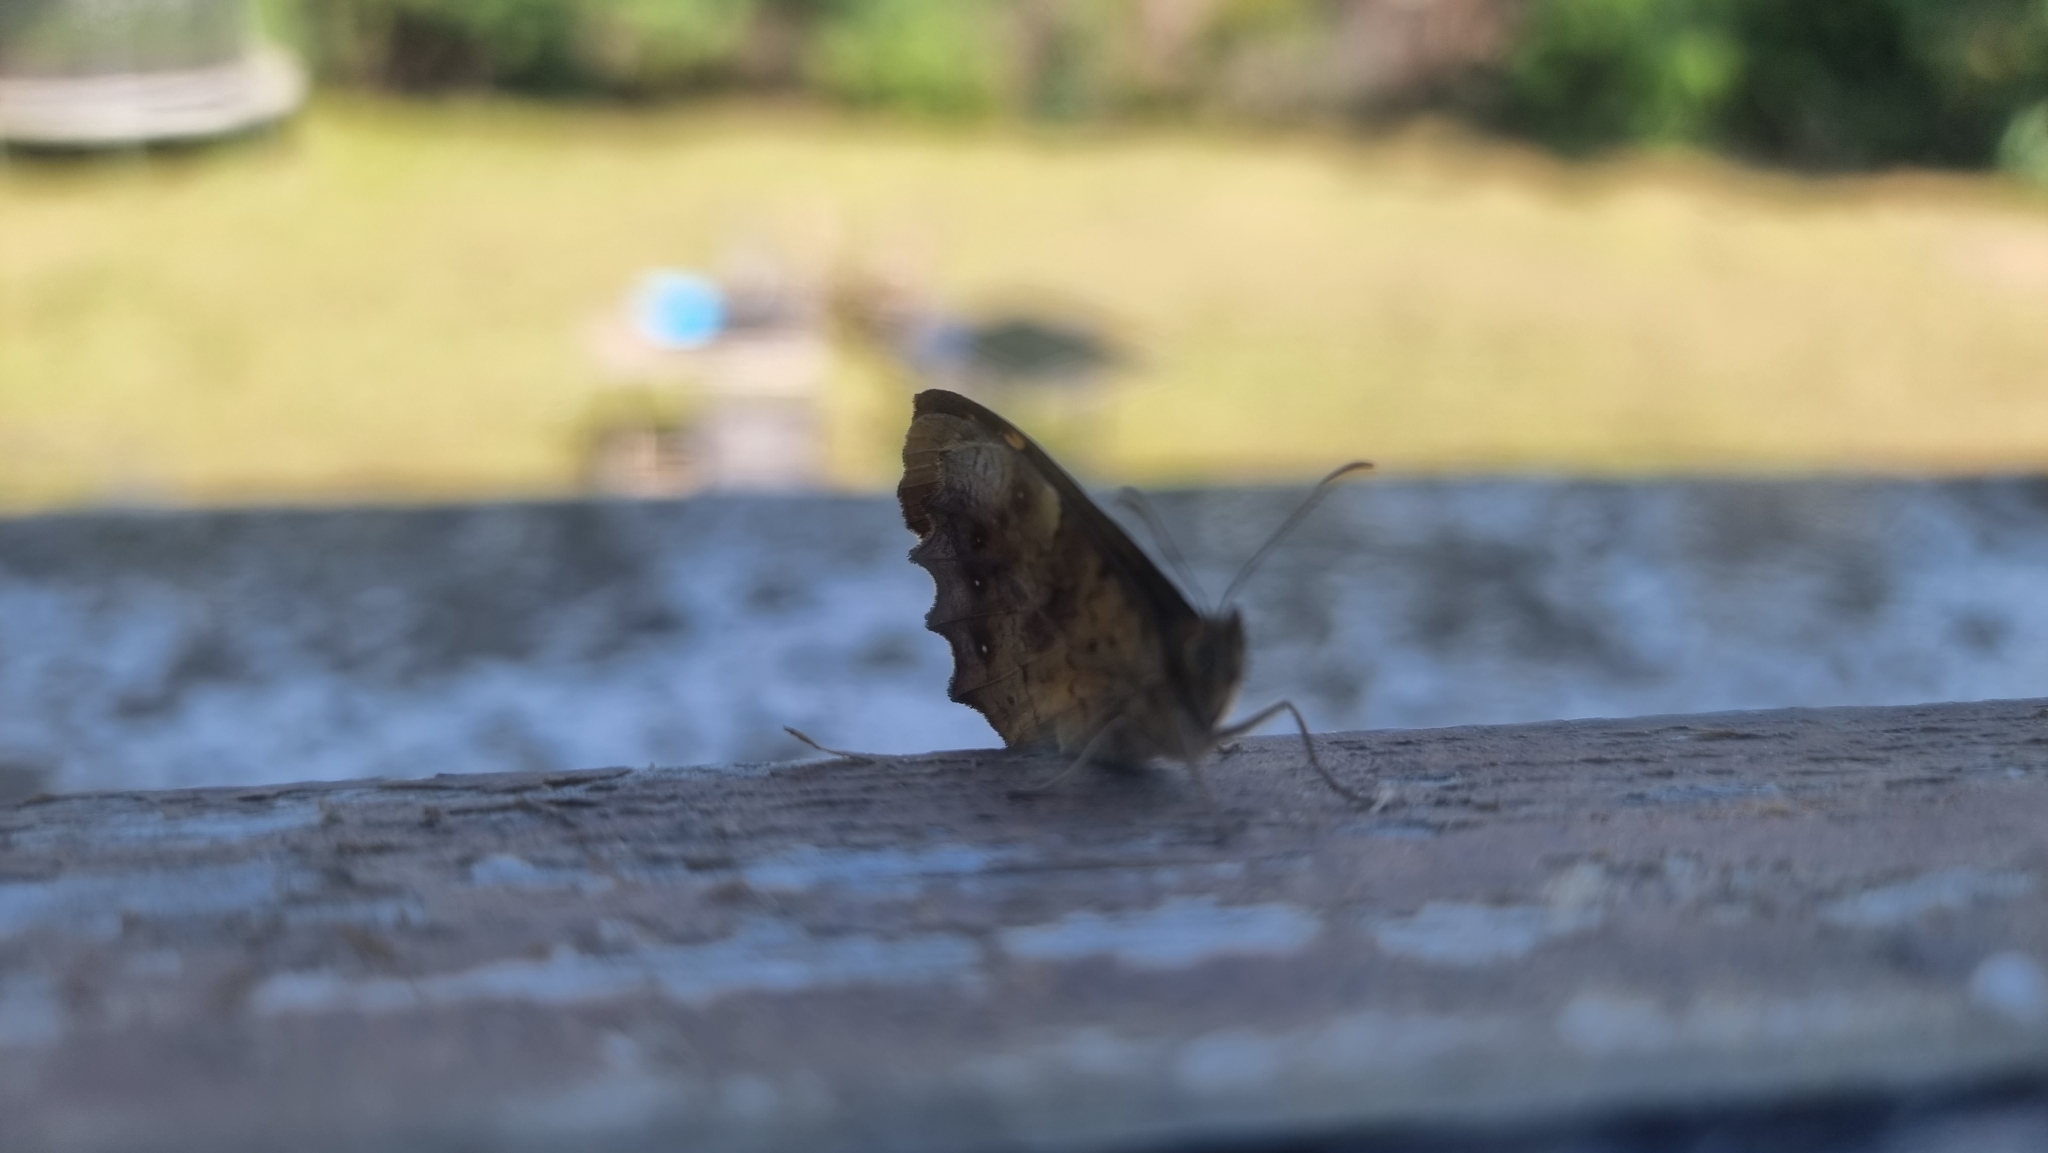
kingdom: Animalia
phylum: Arthropoda
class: Insecta
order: Lepidoptera
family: Nymphalidae
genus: Pararge
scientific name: Pararge aegeria
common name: Speckled wood
